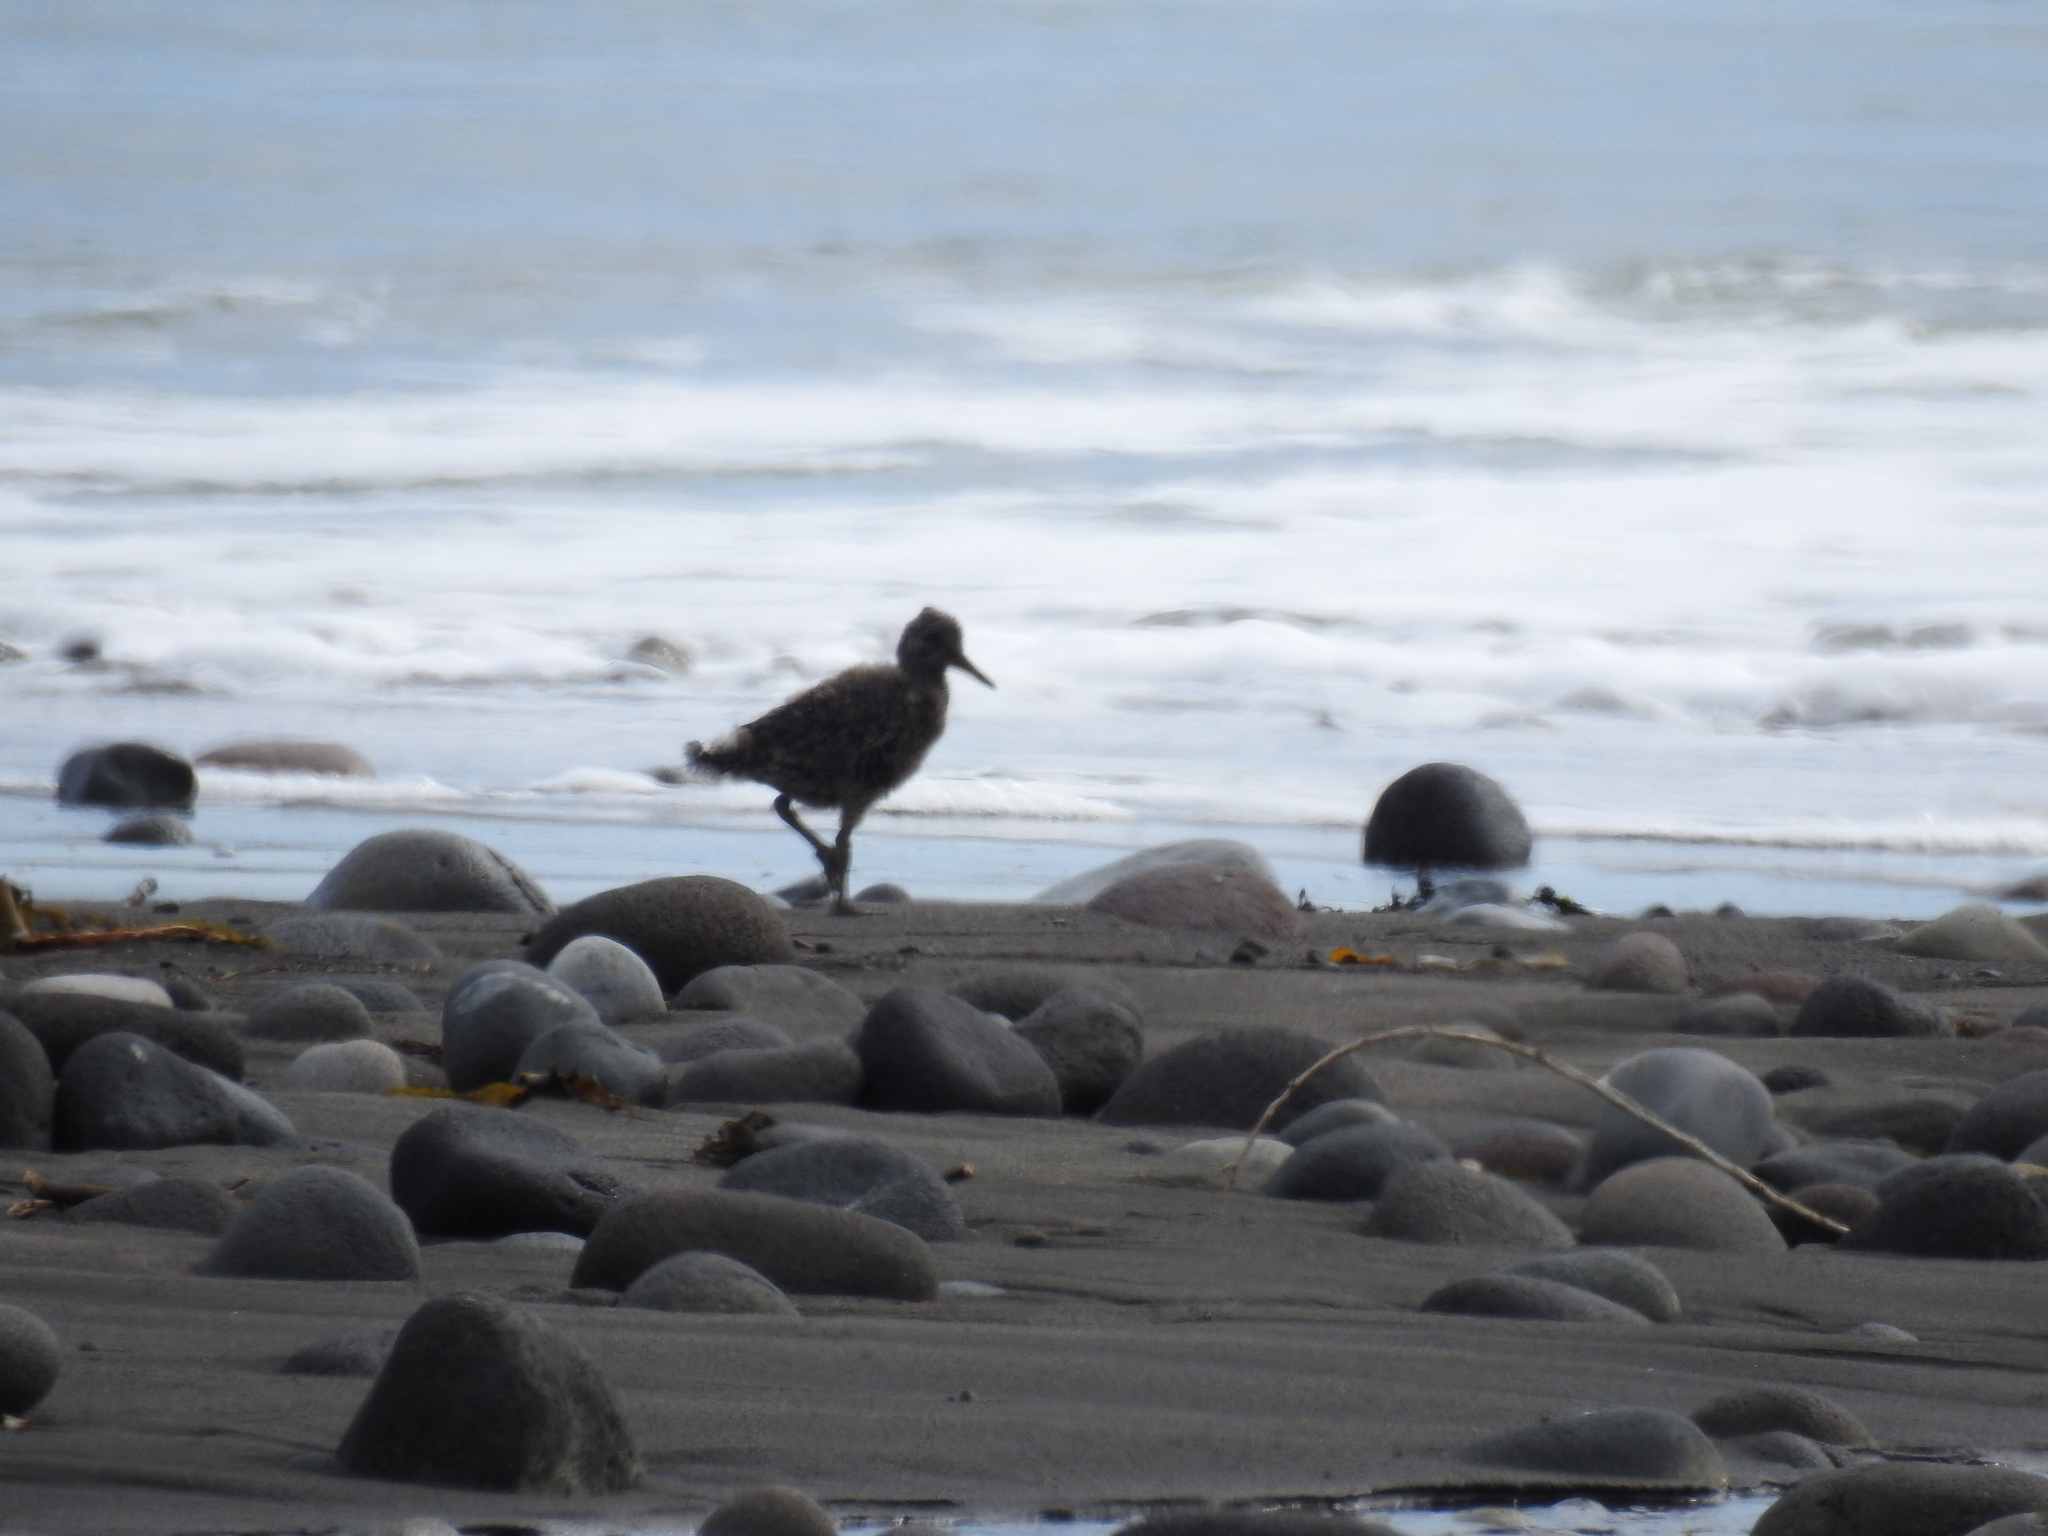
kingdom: Animalia
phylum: Chordata
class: Aves
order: Charadriiformes
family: Haematopodidae
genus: Haematopus
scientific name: Haematopus unicolor
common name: Variable oystercatcher
